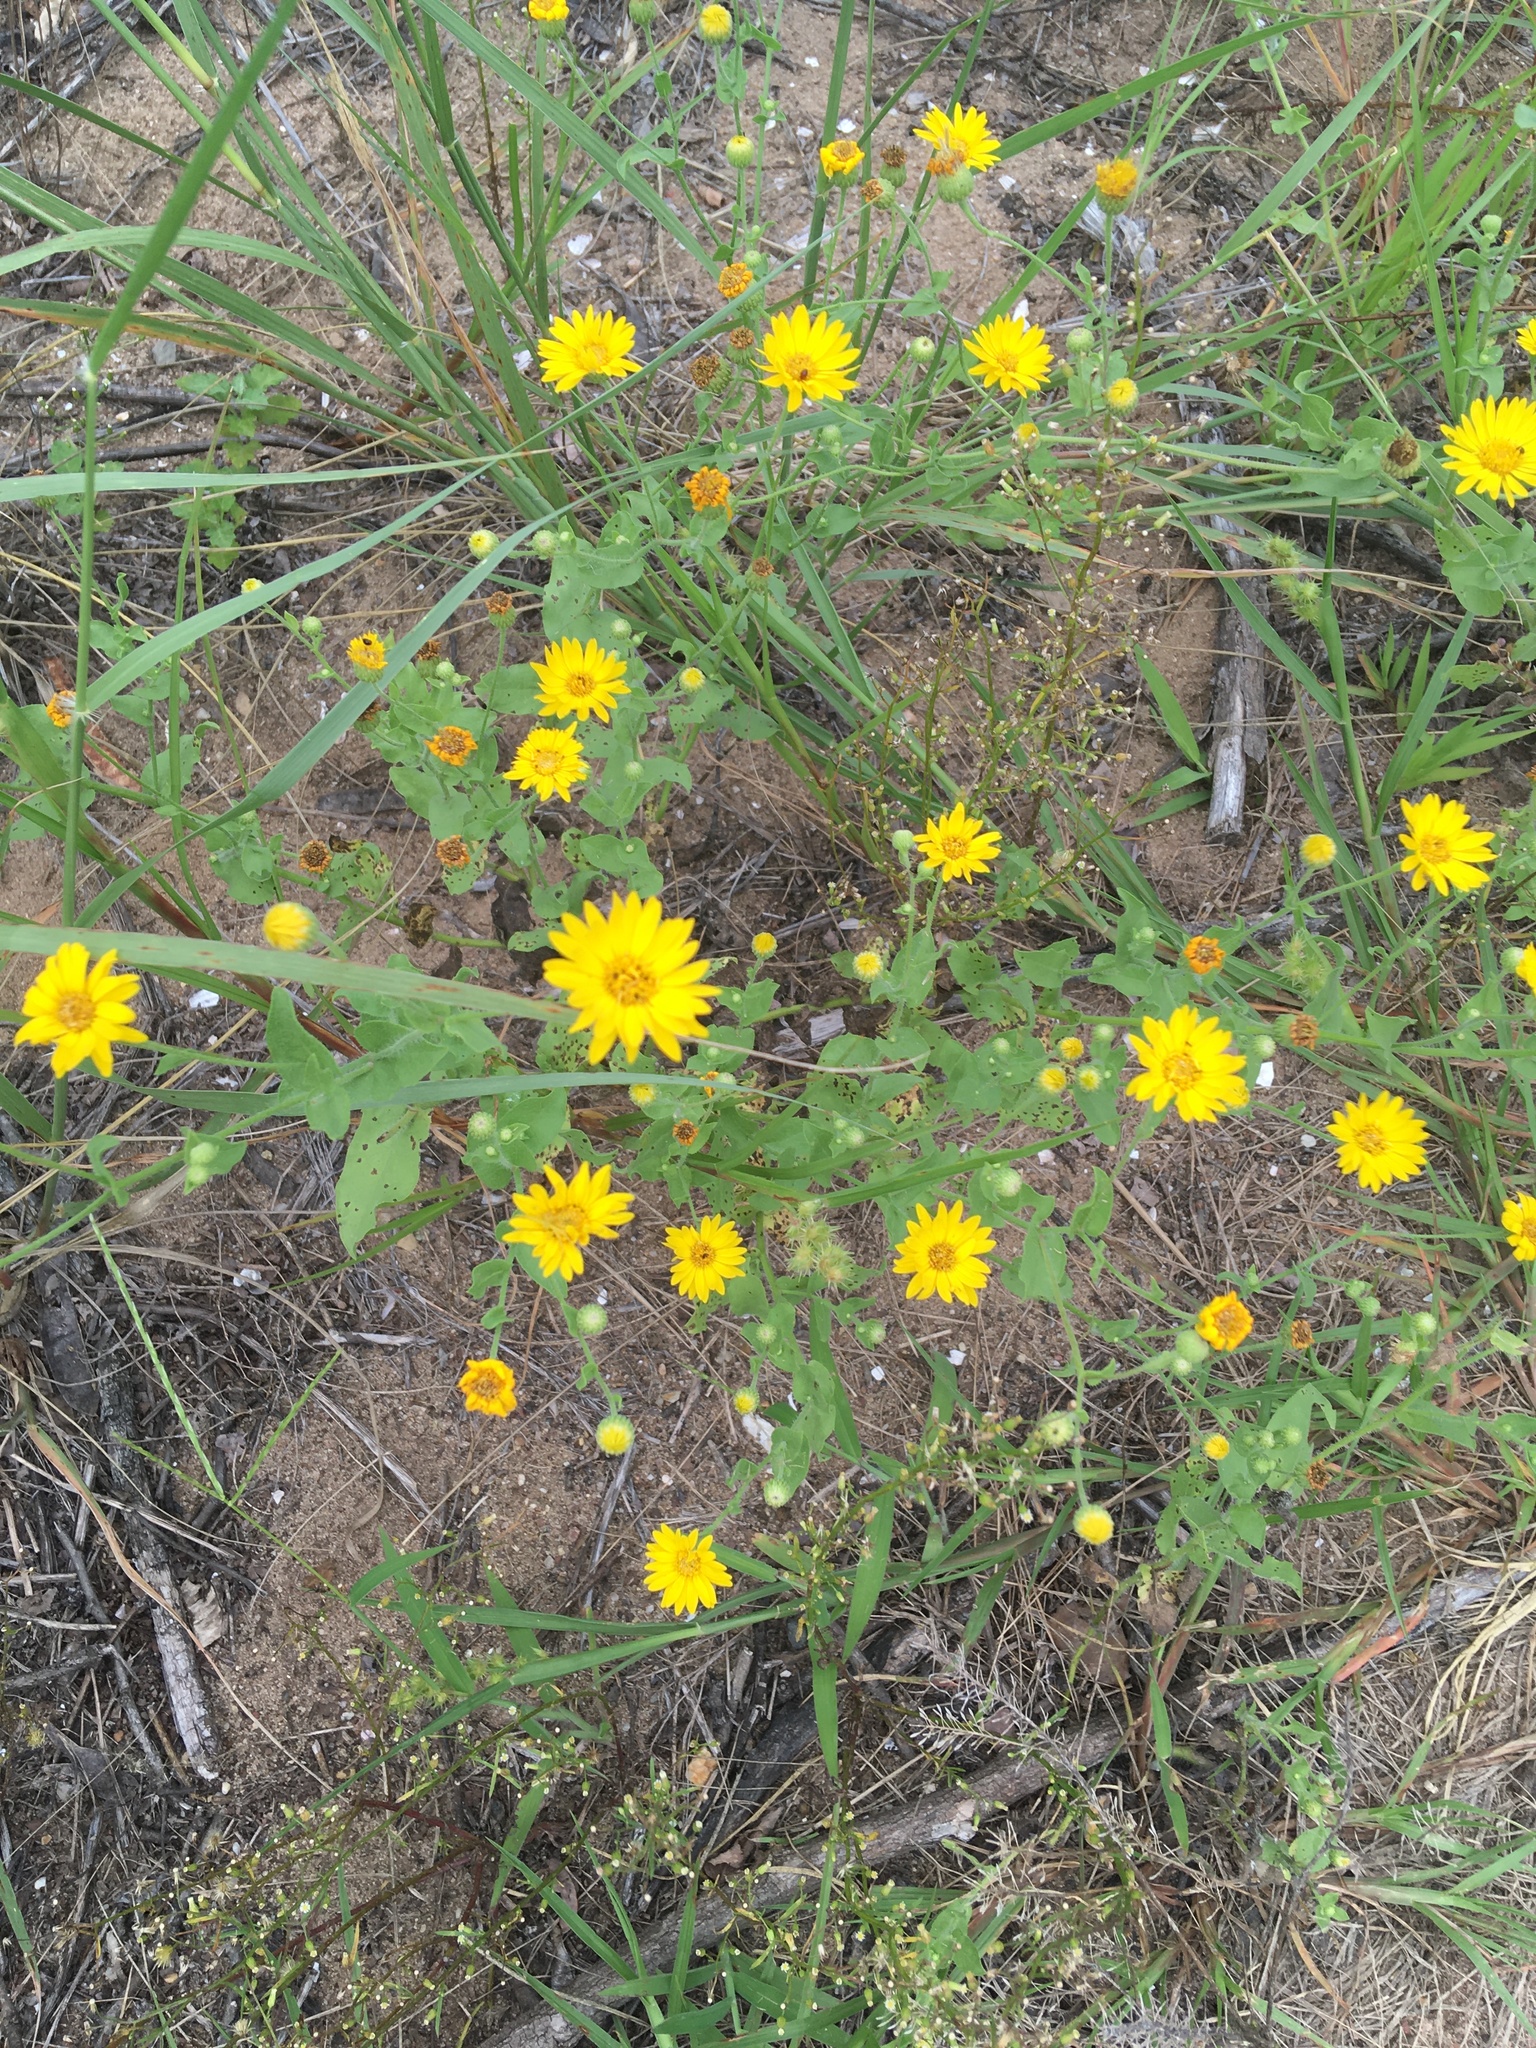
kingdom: Plantae
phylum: Tracheophyta
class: Magnoliopsida
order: Asterales
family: Asteraceae
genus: Heterotheca
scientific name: Heterotheca subaxillaris
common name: Camphorweed
